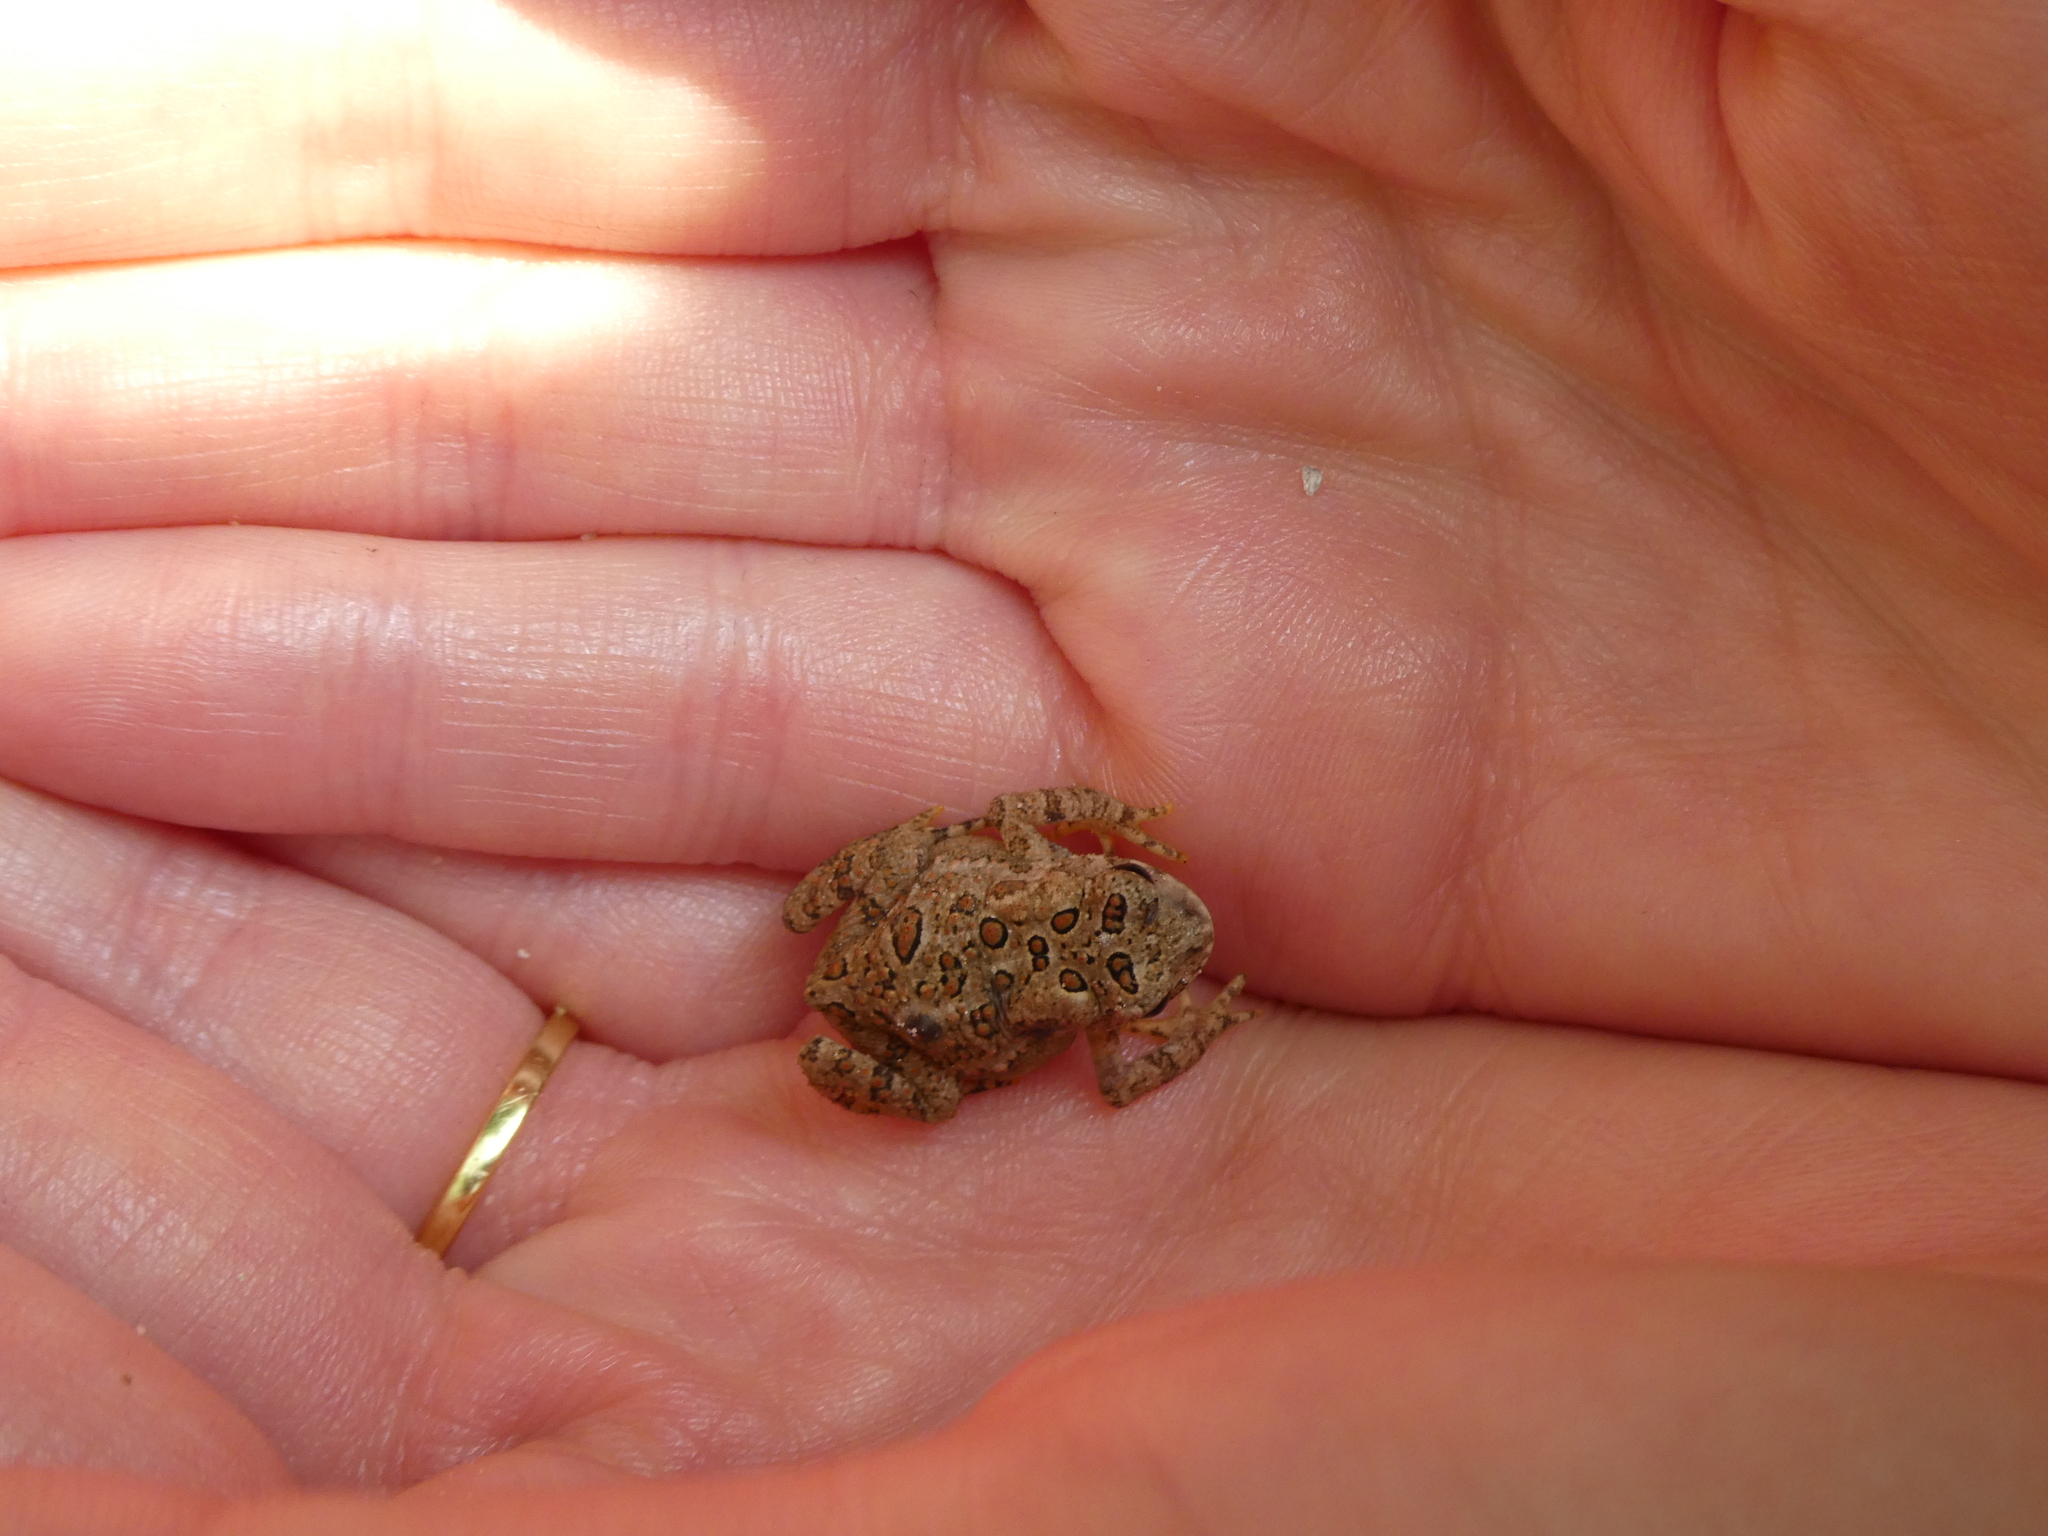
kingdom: Animalia
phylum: Chordata
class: Amphibia
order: Anura
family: Bufonidae
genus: Anaxyrus
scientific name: Anaxyrus americanus
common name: American toad
